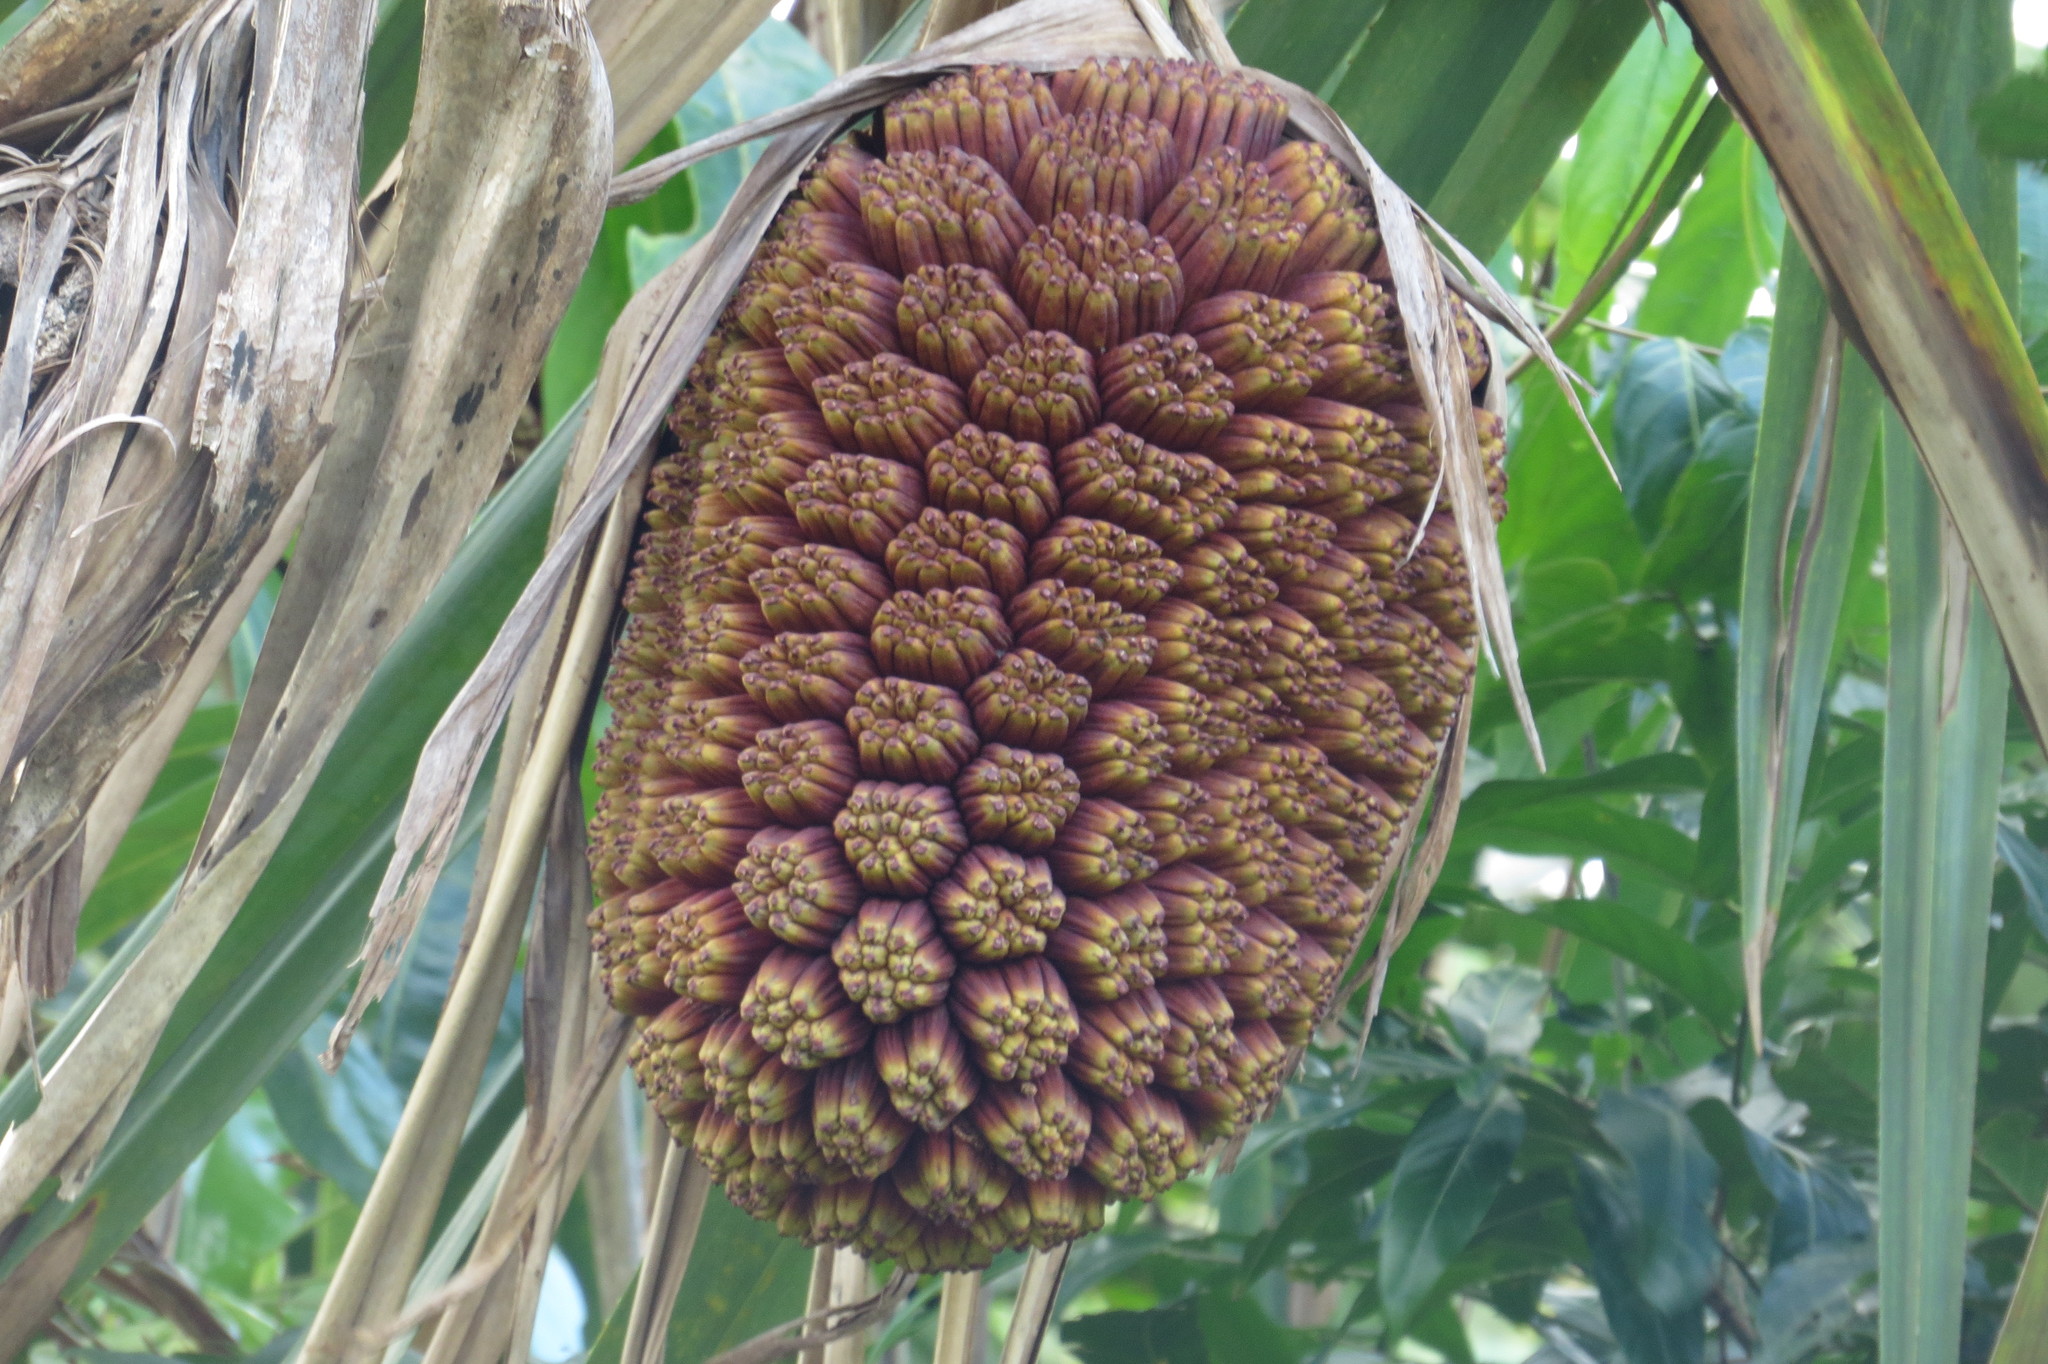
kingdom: Plantae
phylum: Tracheophyta
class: Liliopsida
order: Pandanales
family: Pandanaceae
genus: Pandanus
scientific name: Pandanus solms-laubachii
